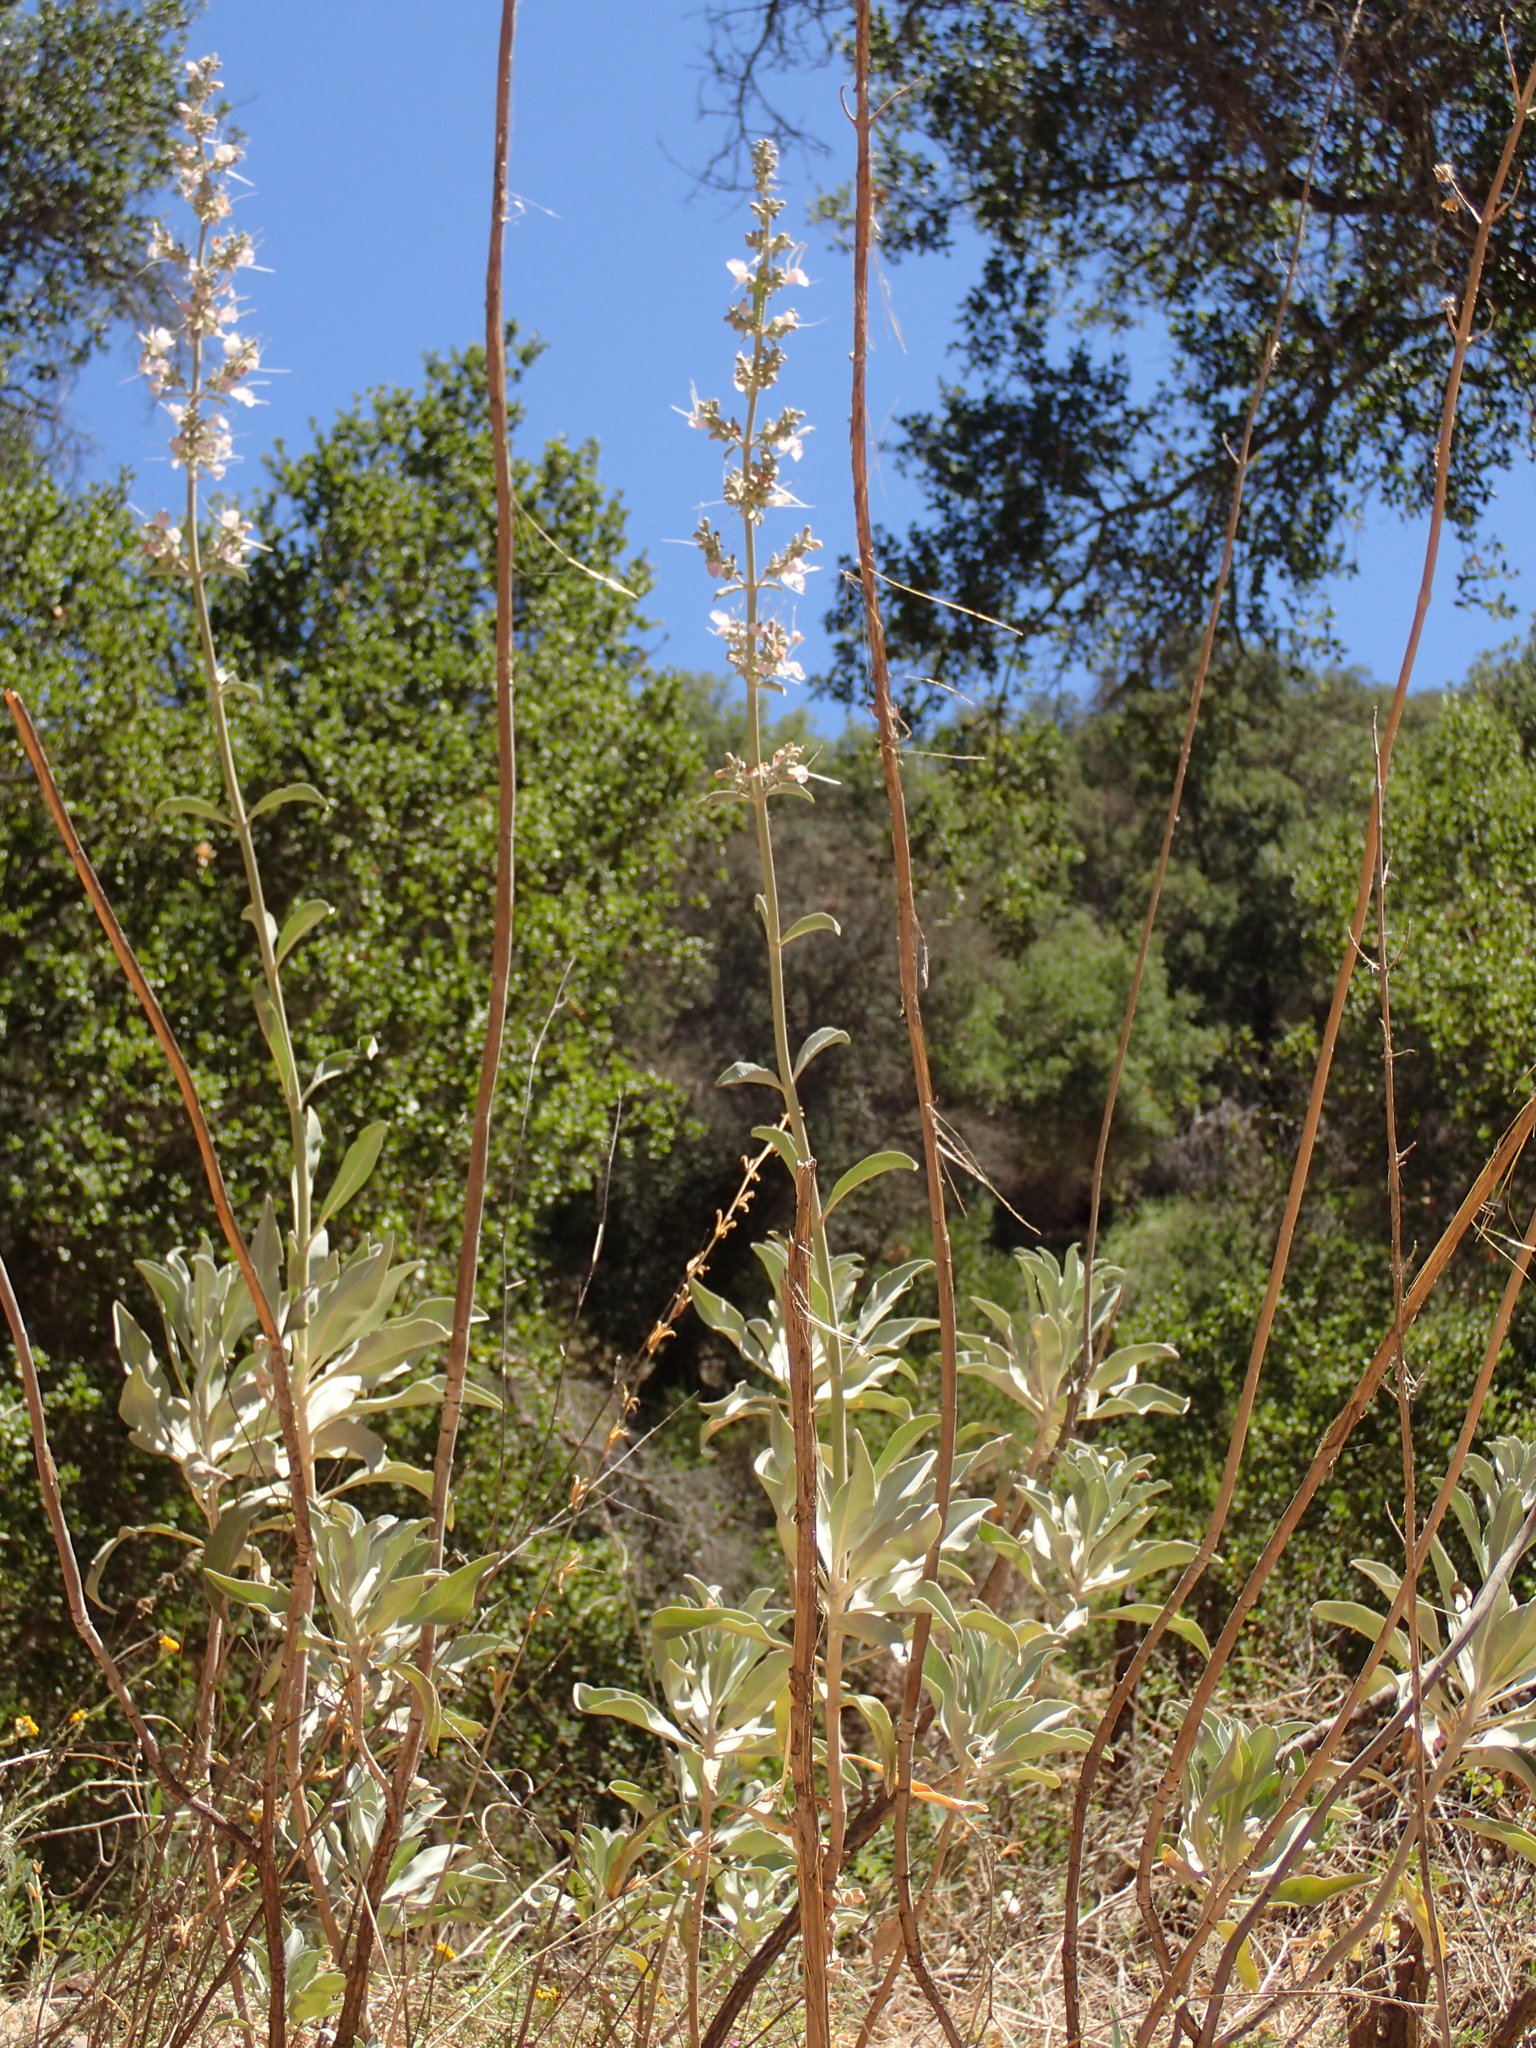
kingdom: Plantae
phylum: Tracheophyta
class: Magnoliopsida
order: Lamiales
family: Lamiaceae
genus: Salvia
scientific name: Salvia apiana
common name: White sage
